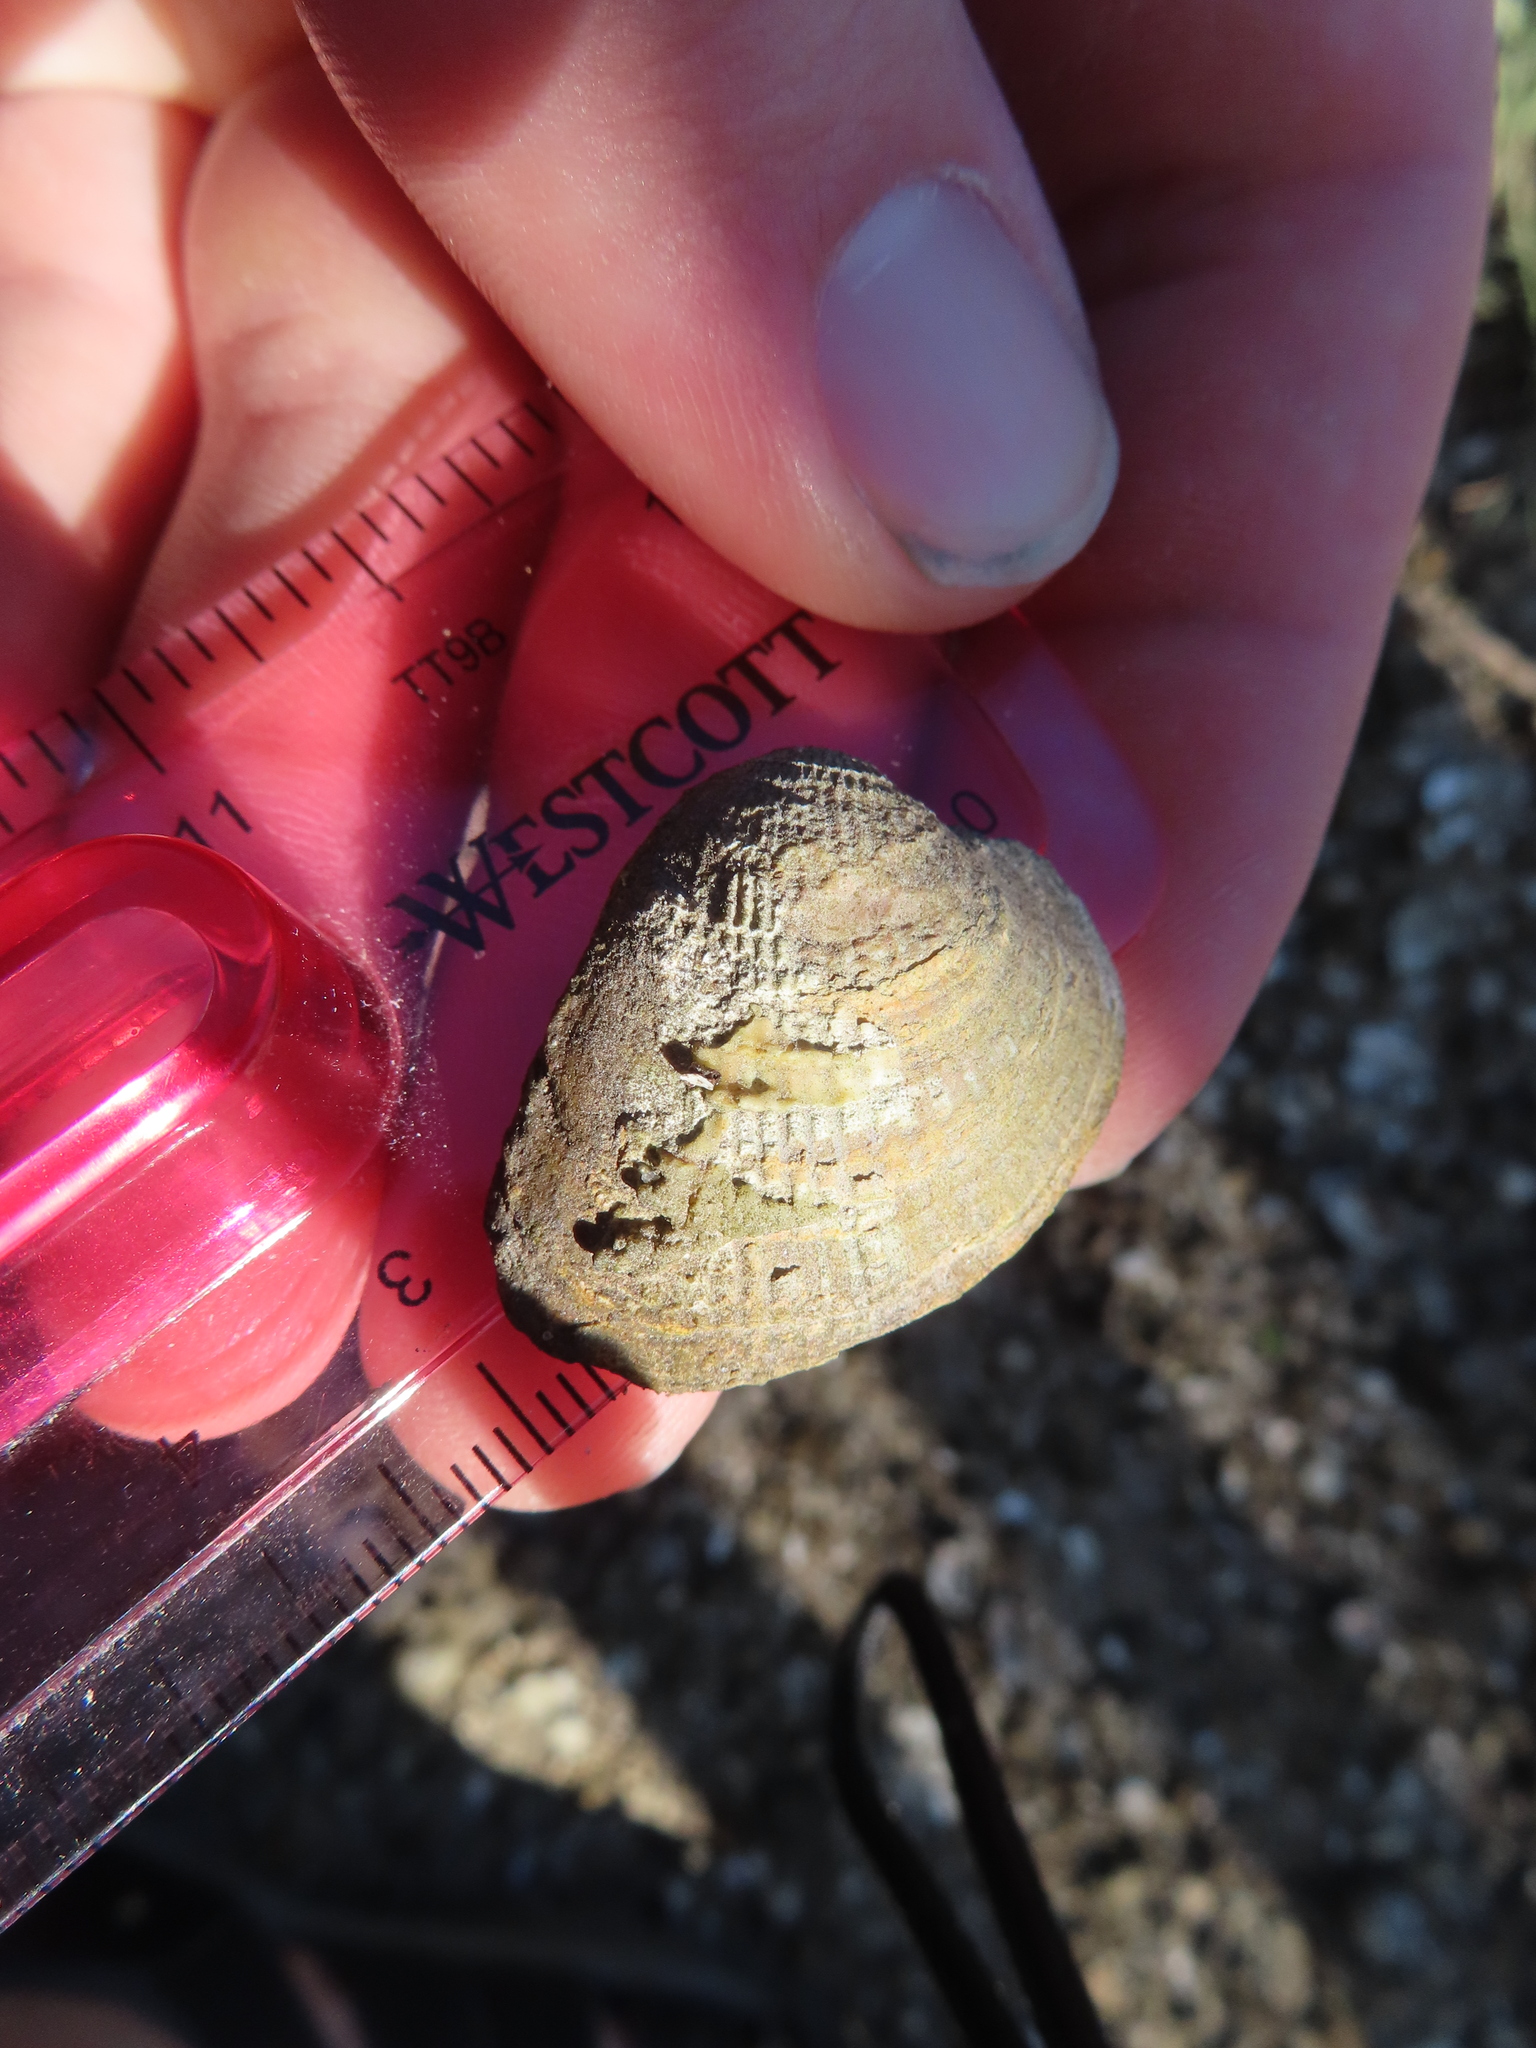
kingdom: Animalia
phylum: Mollusca
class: Bivalvia
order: Venerida
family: Veneridae
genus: Chione
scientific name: Chione elevata
